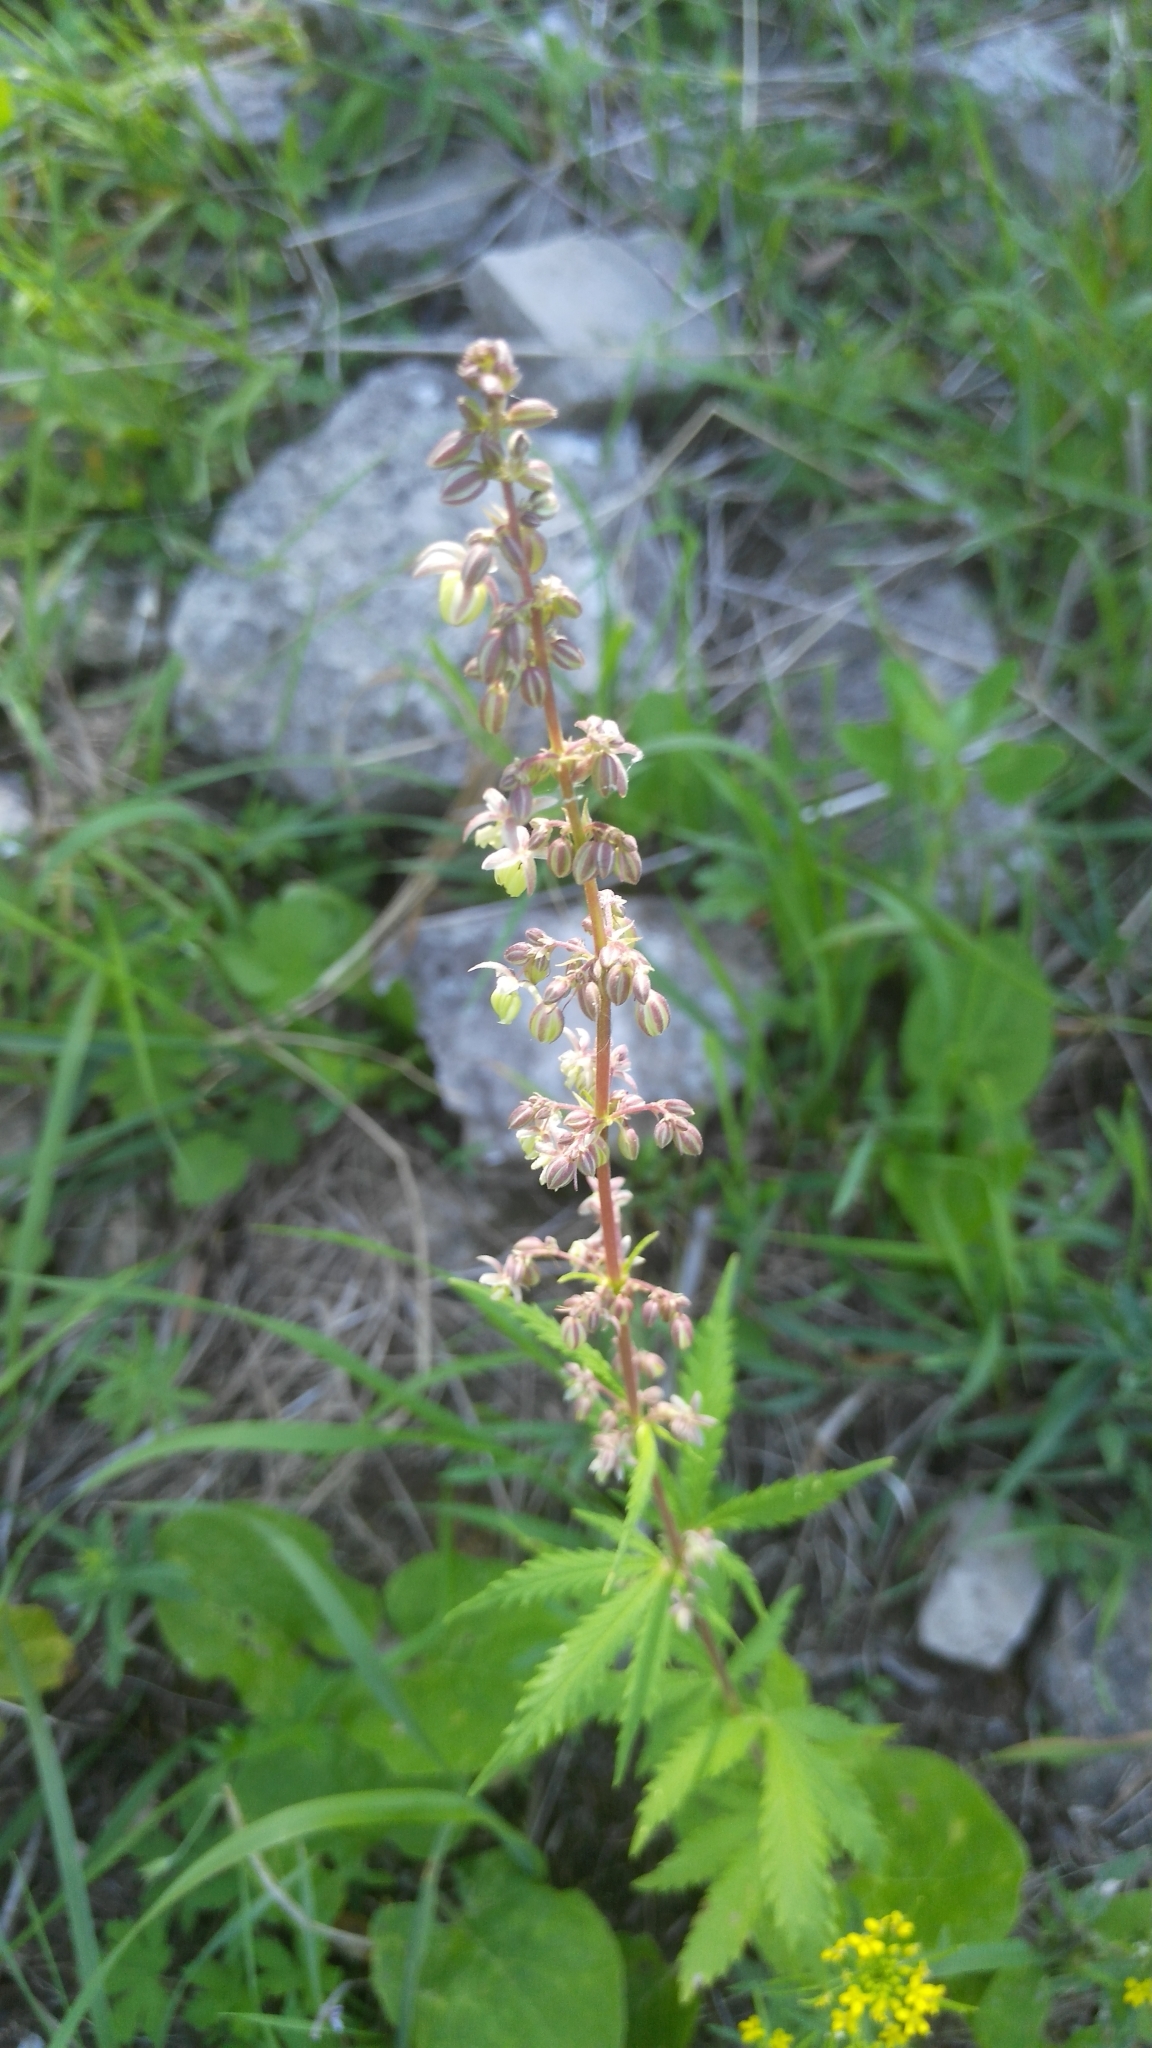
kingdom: Plantae
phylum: Tracheophyta
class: Magnoliopsida
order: Rosales
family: Cannabaceae
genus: Cannabis
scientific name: Cannabis sativa
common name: Hemp
